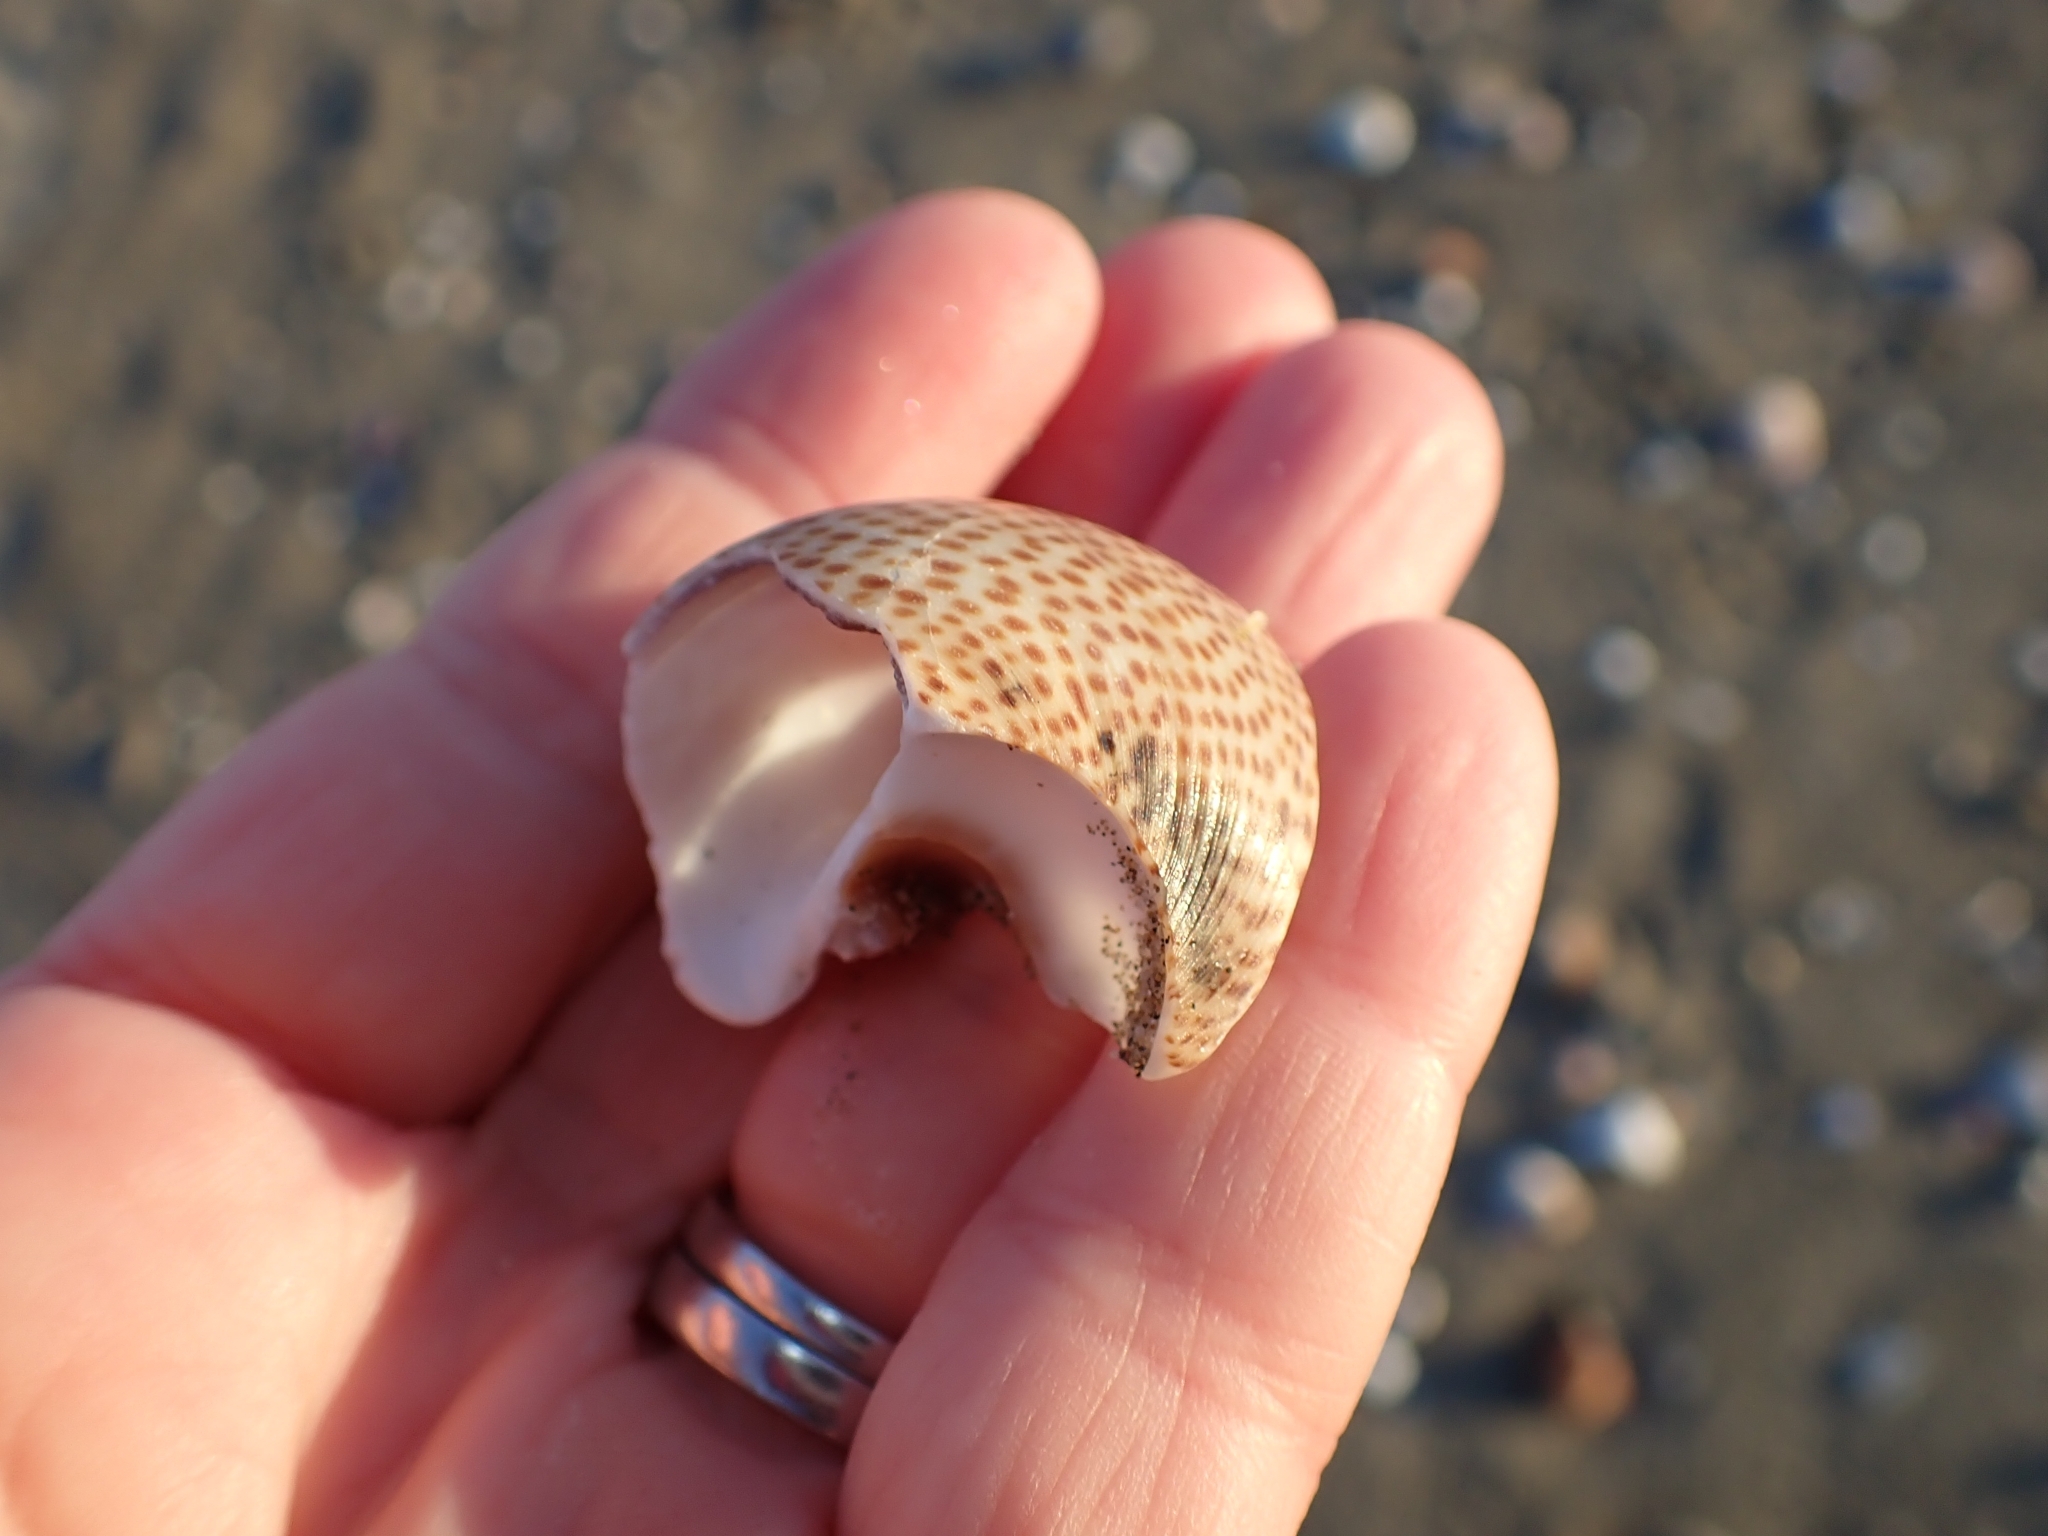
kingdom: Animalia
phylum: Mollusca
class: Gastropoda
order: Littorinimorpha
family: Naticidae
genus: Naticarius
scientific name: Naticarius stercusmuscarum
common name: Fly-speck moonsnail
